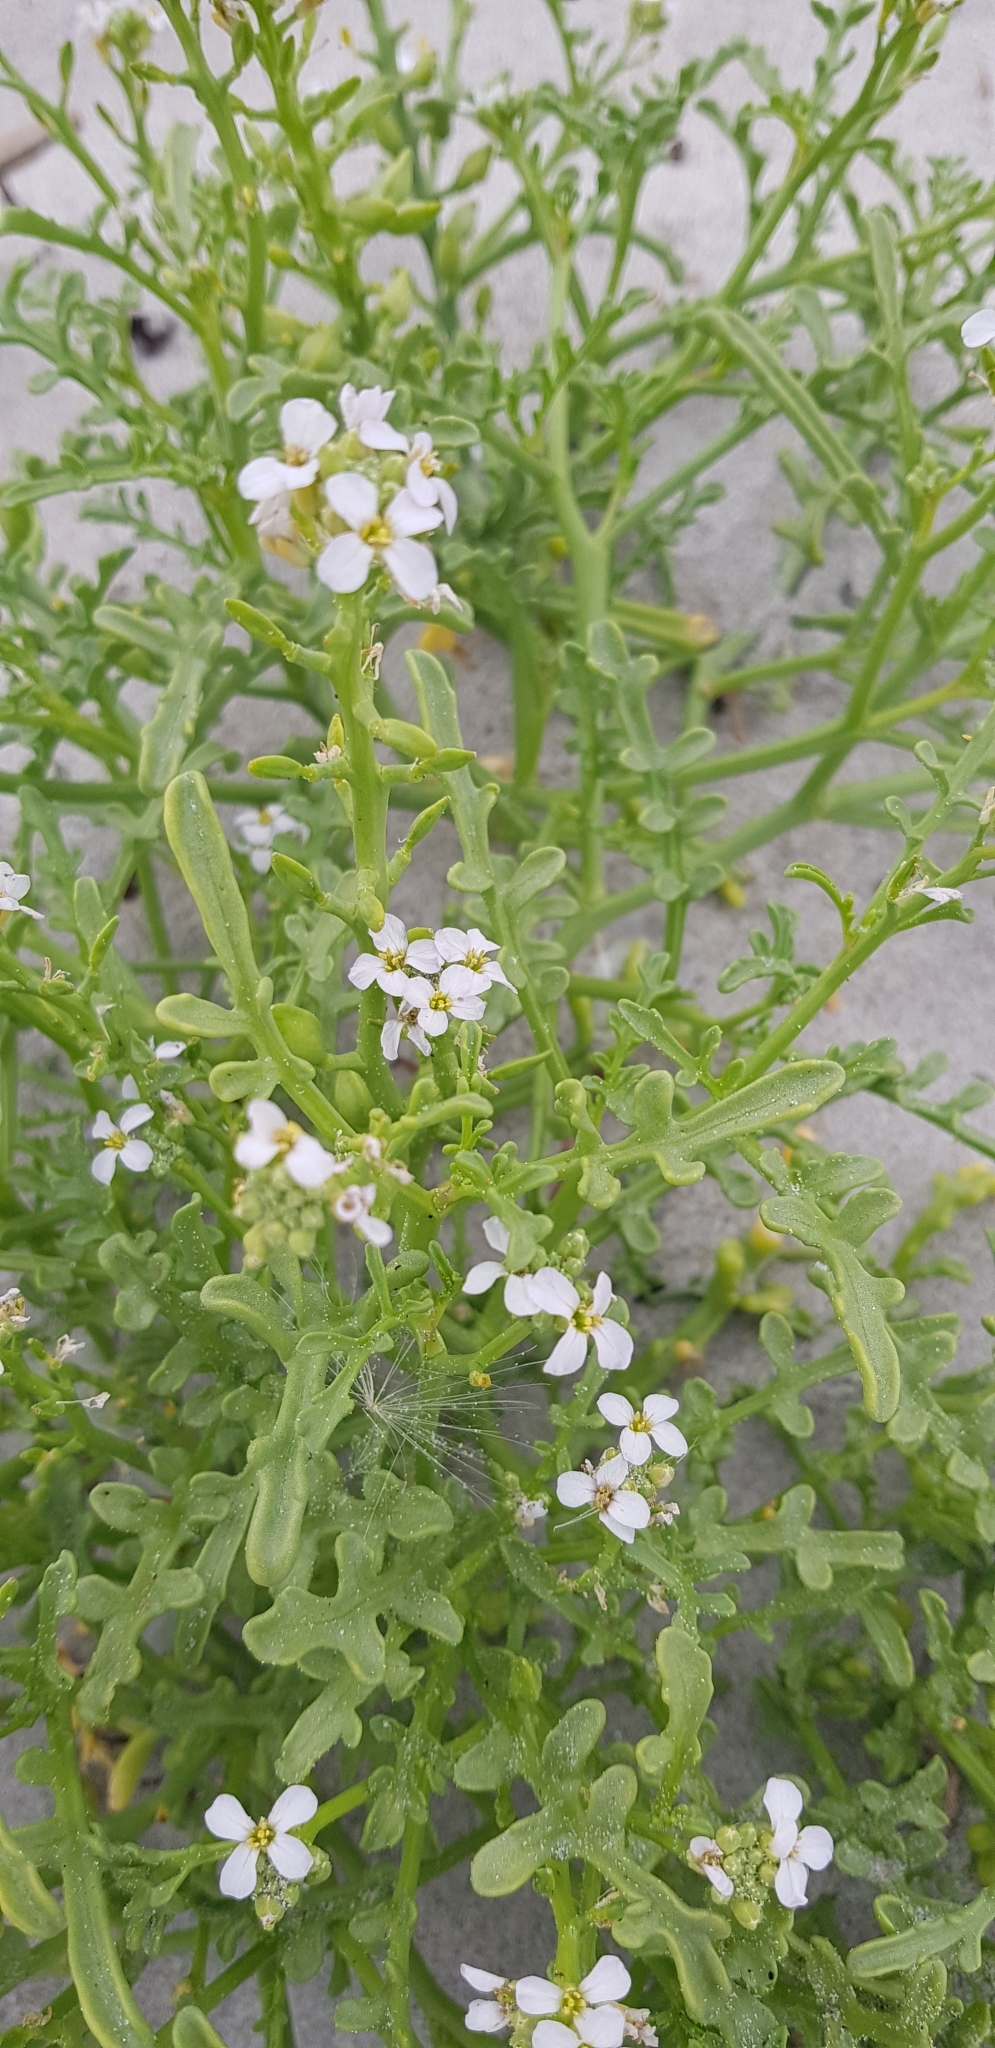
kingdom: Plantae
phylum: Tracheophyta
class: Magnoliopsida
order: Brassicales
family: Brassicaceae
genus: Cakile
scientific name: Cakile maritima
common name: Sea rocket
